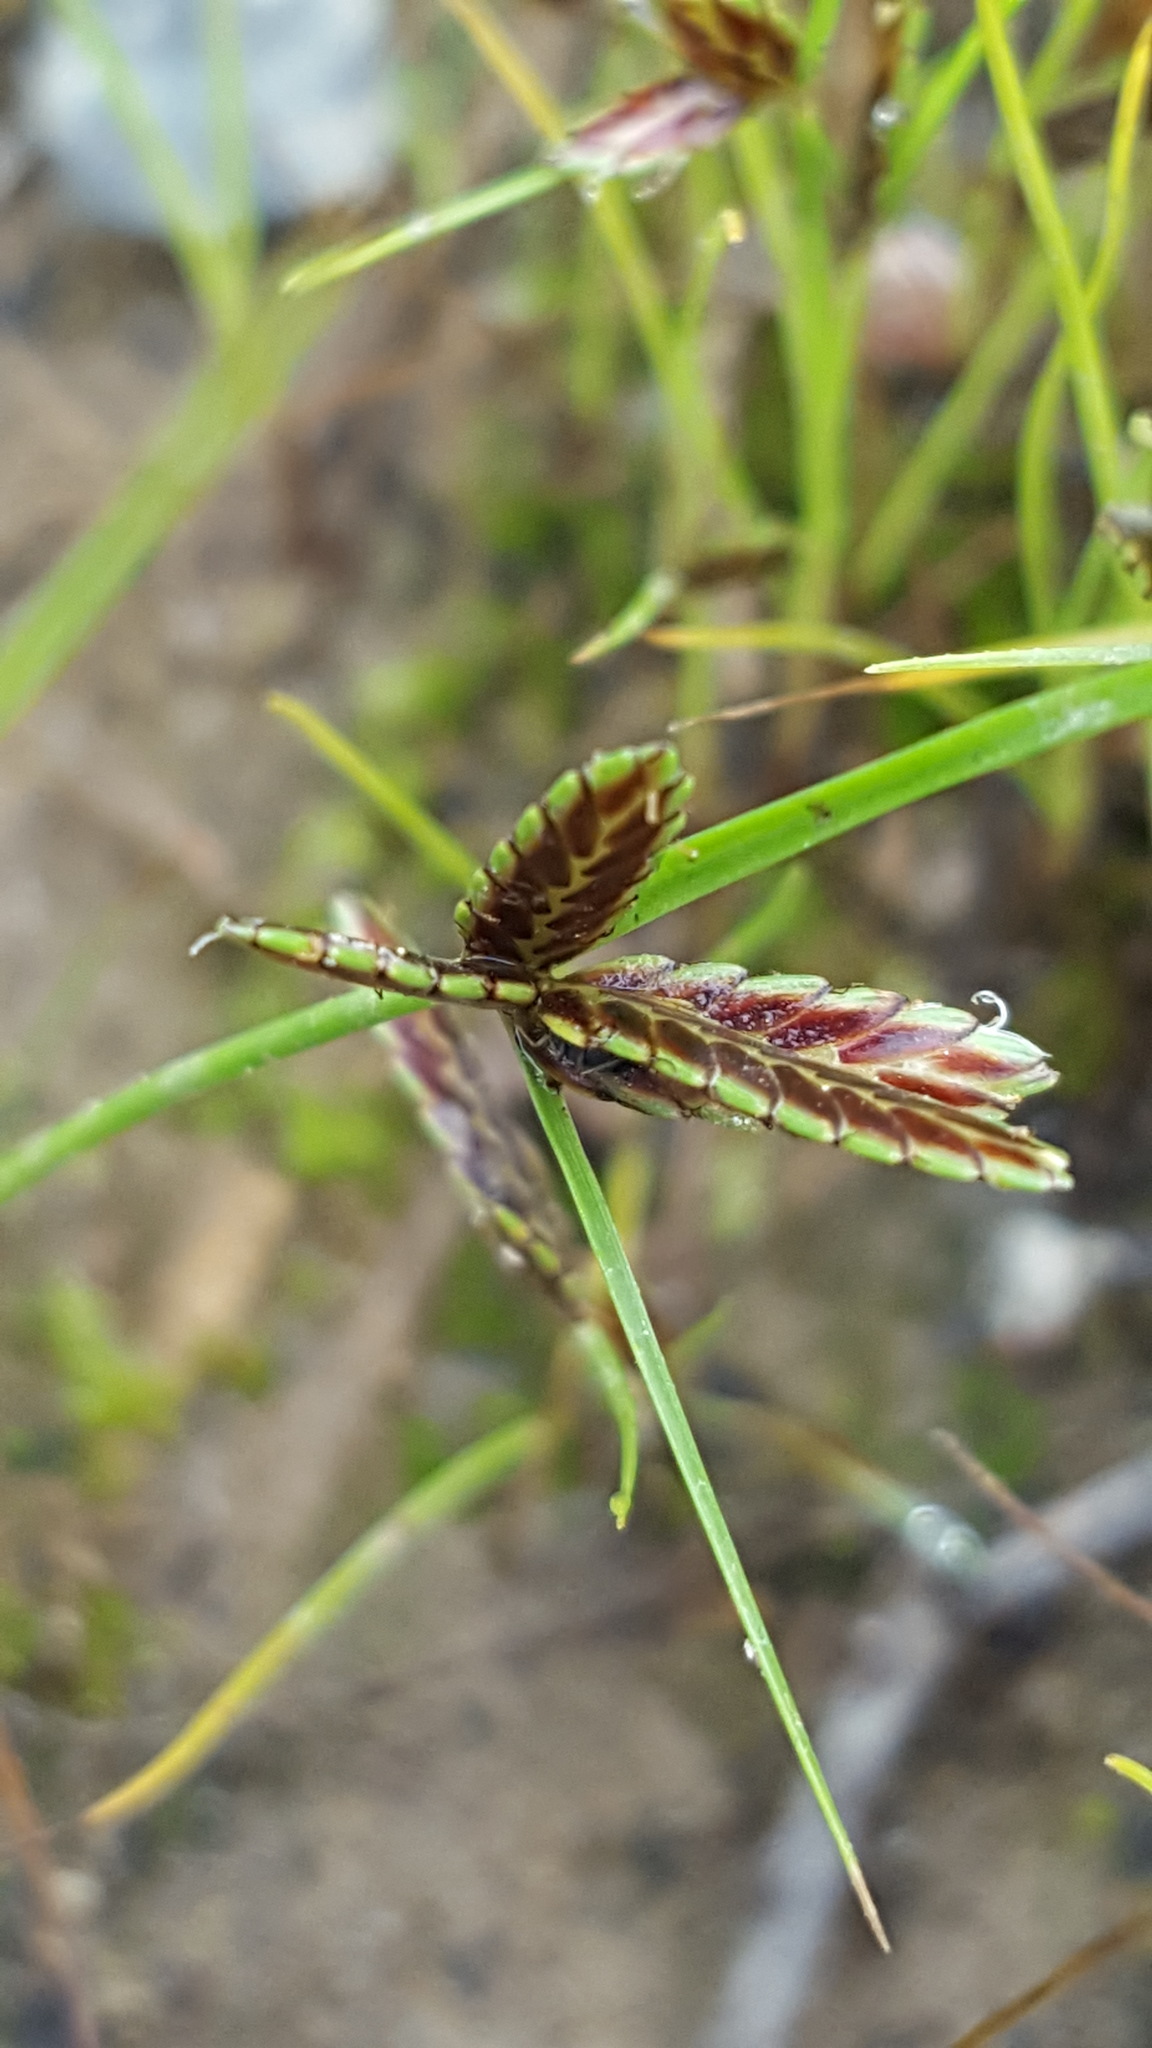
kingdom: Plantae
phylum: Tracheophyta
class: Liliopsida
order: Poales
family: Cyperaceae
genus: Cyperus
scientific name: Cyperus bipartitus
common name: Brook flatsedge
